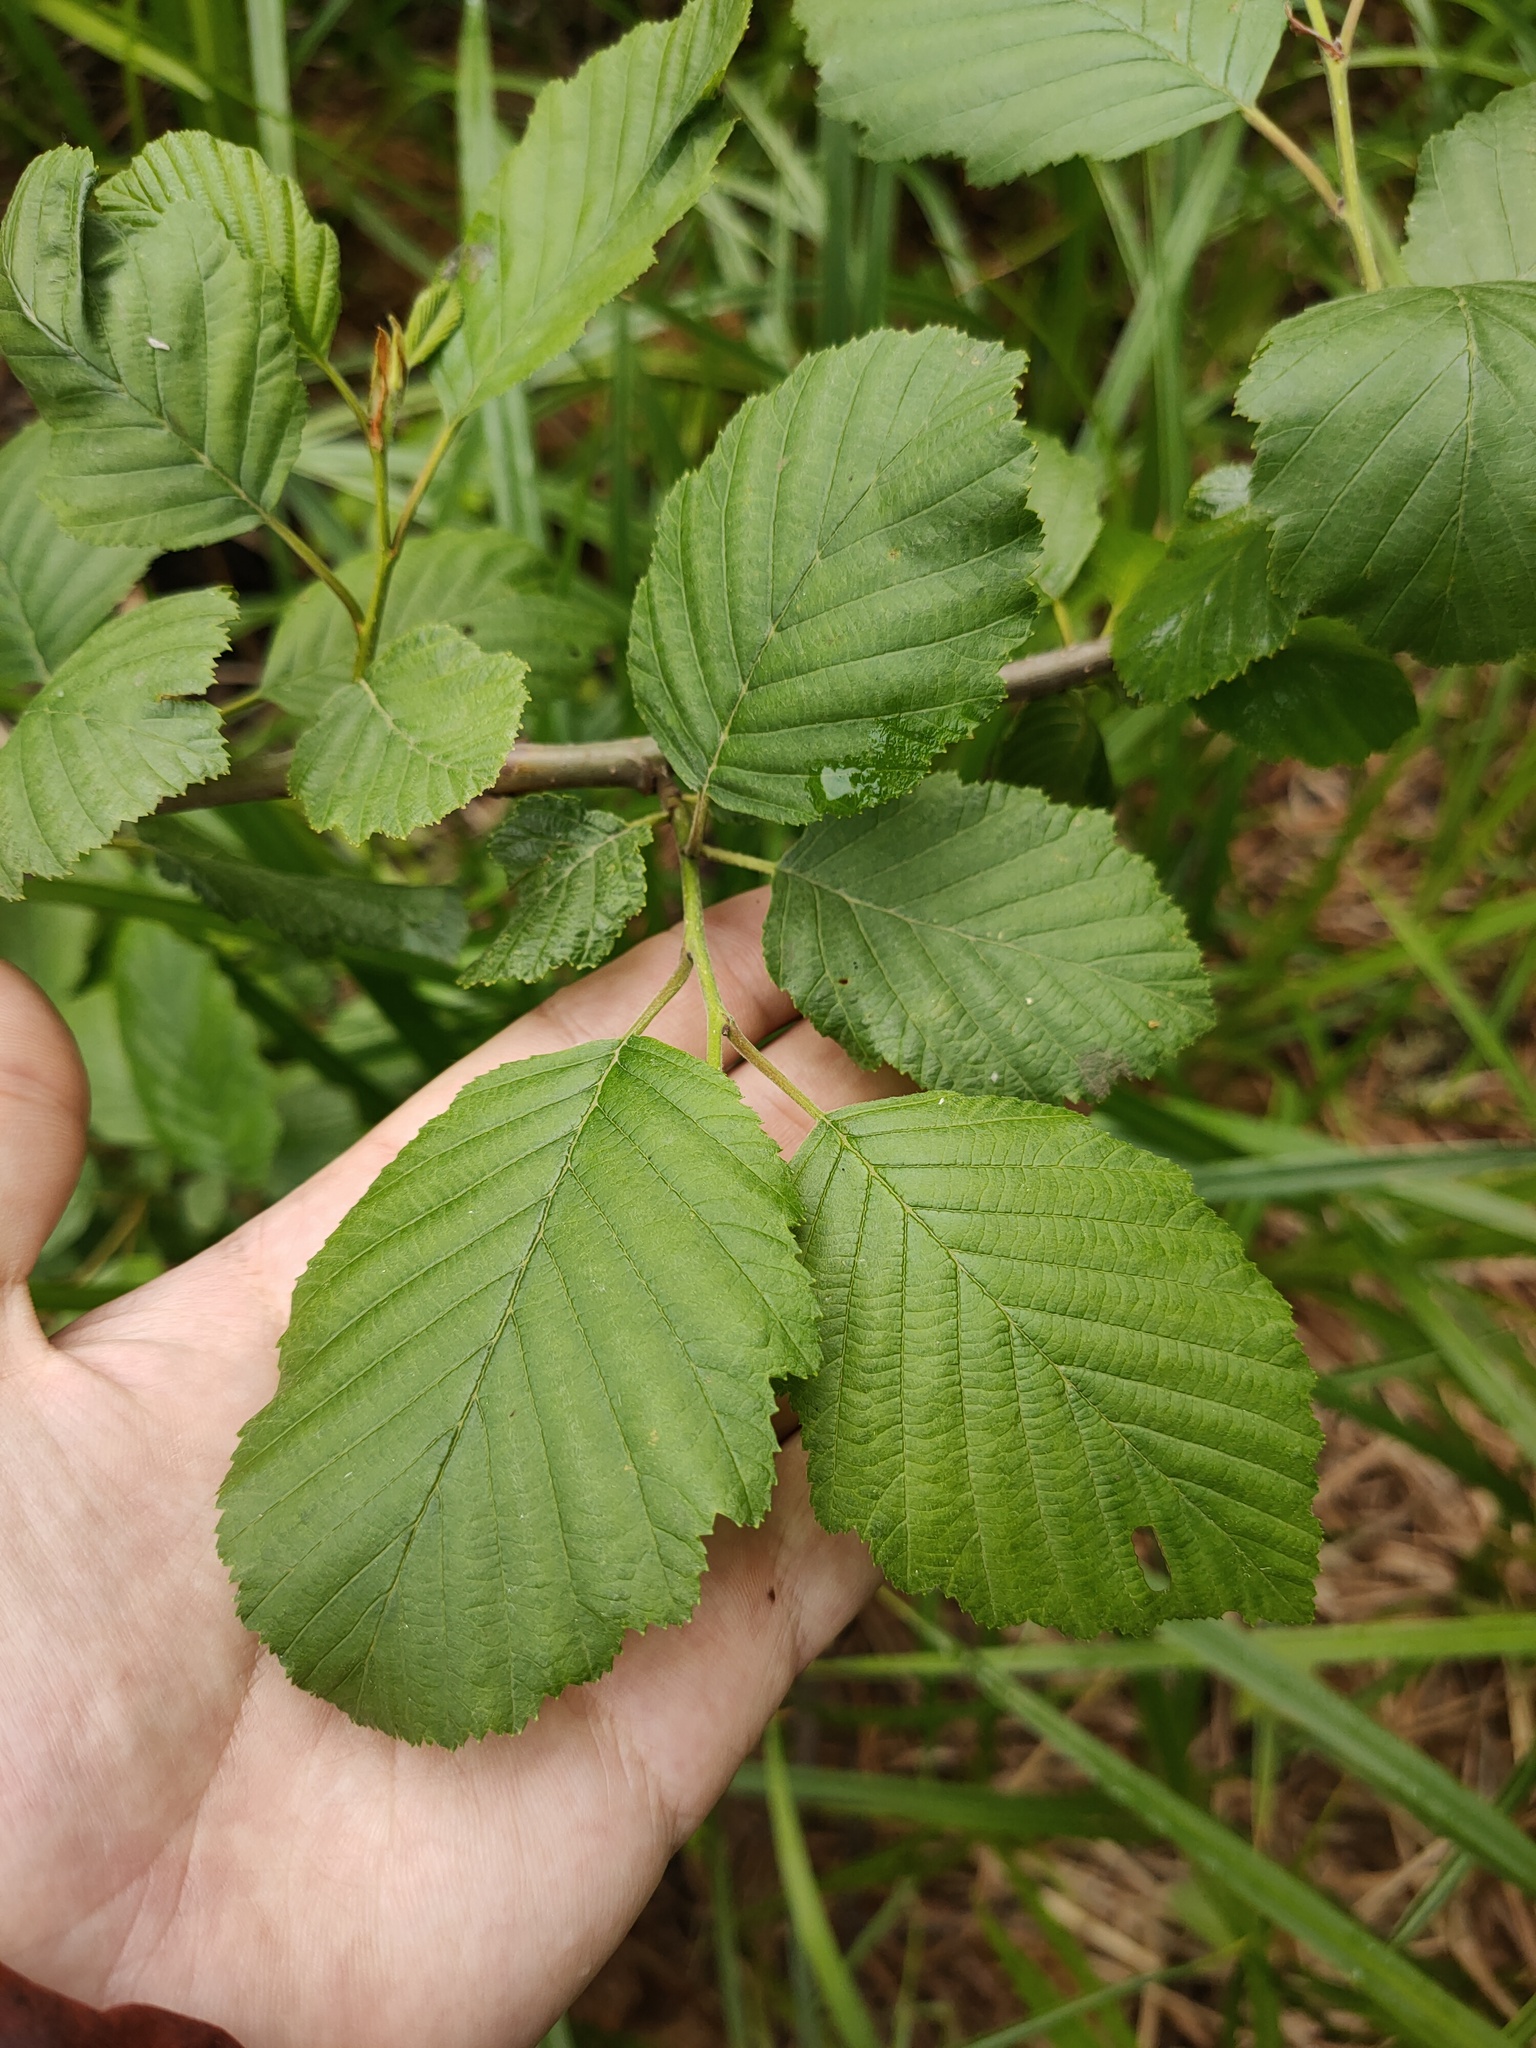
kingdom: Plantae
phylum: Tracheophyta
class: Magnoliopsida
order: Fagales
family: Betulaceae
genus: Alnus
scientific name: Alnus incana
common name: Grey alder
